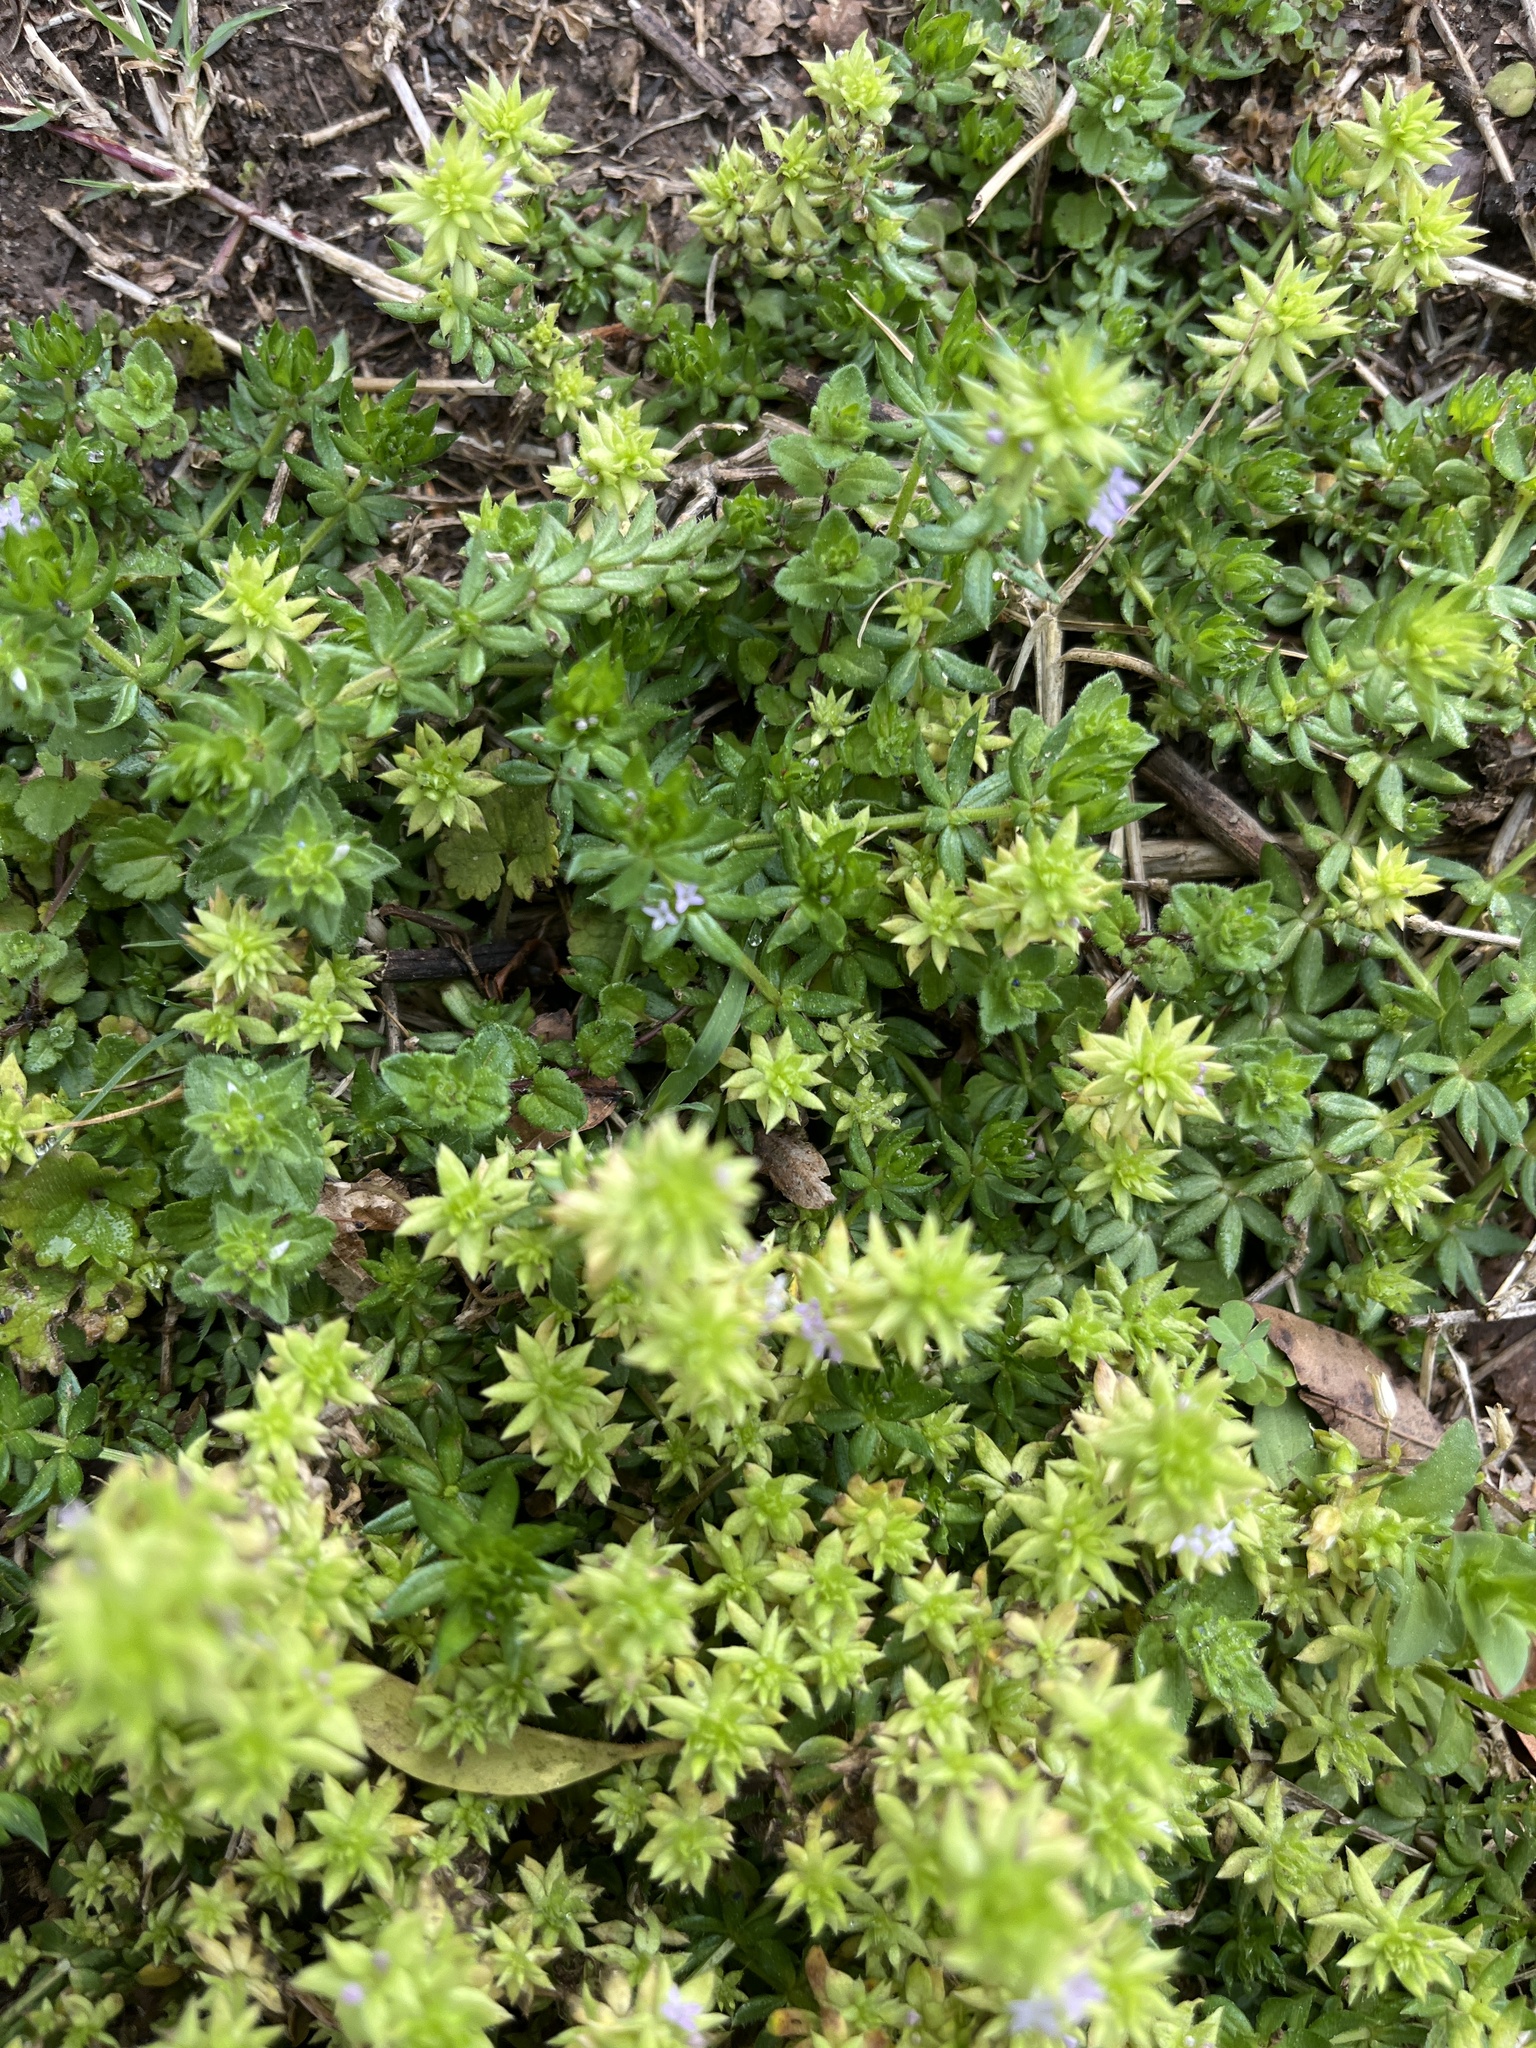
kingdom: Plantae
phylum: Tracheophyta
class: Magnoliopsida
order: Gentianales
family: Rubiaceae
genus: Sherardia
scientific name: Sherardia arvensis
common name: Field madder
